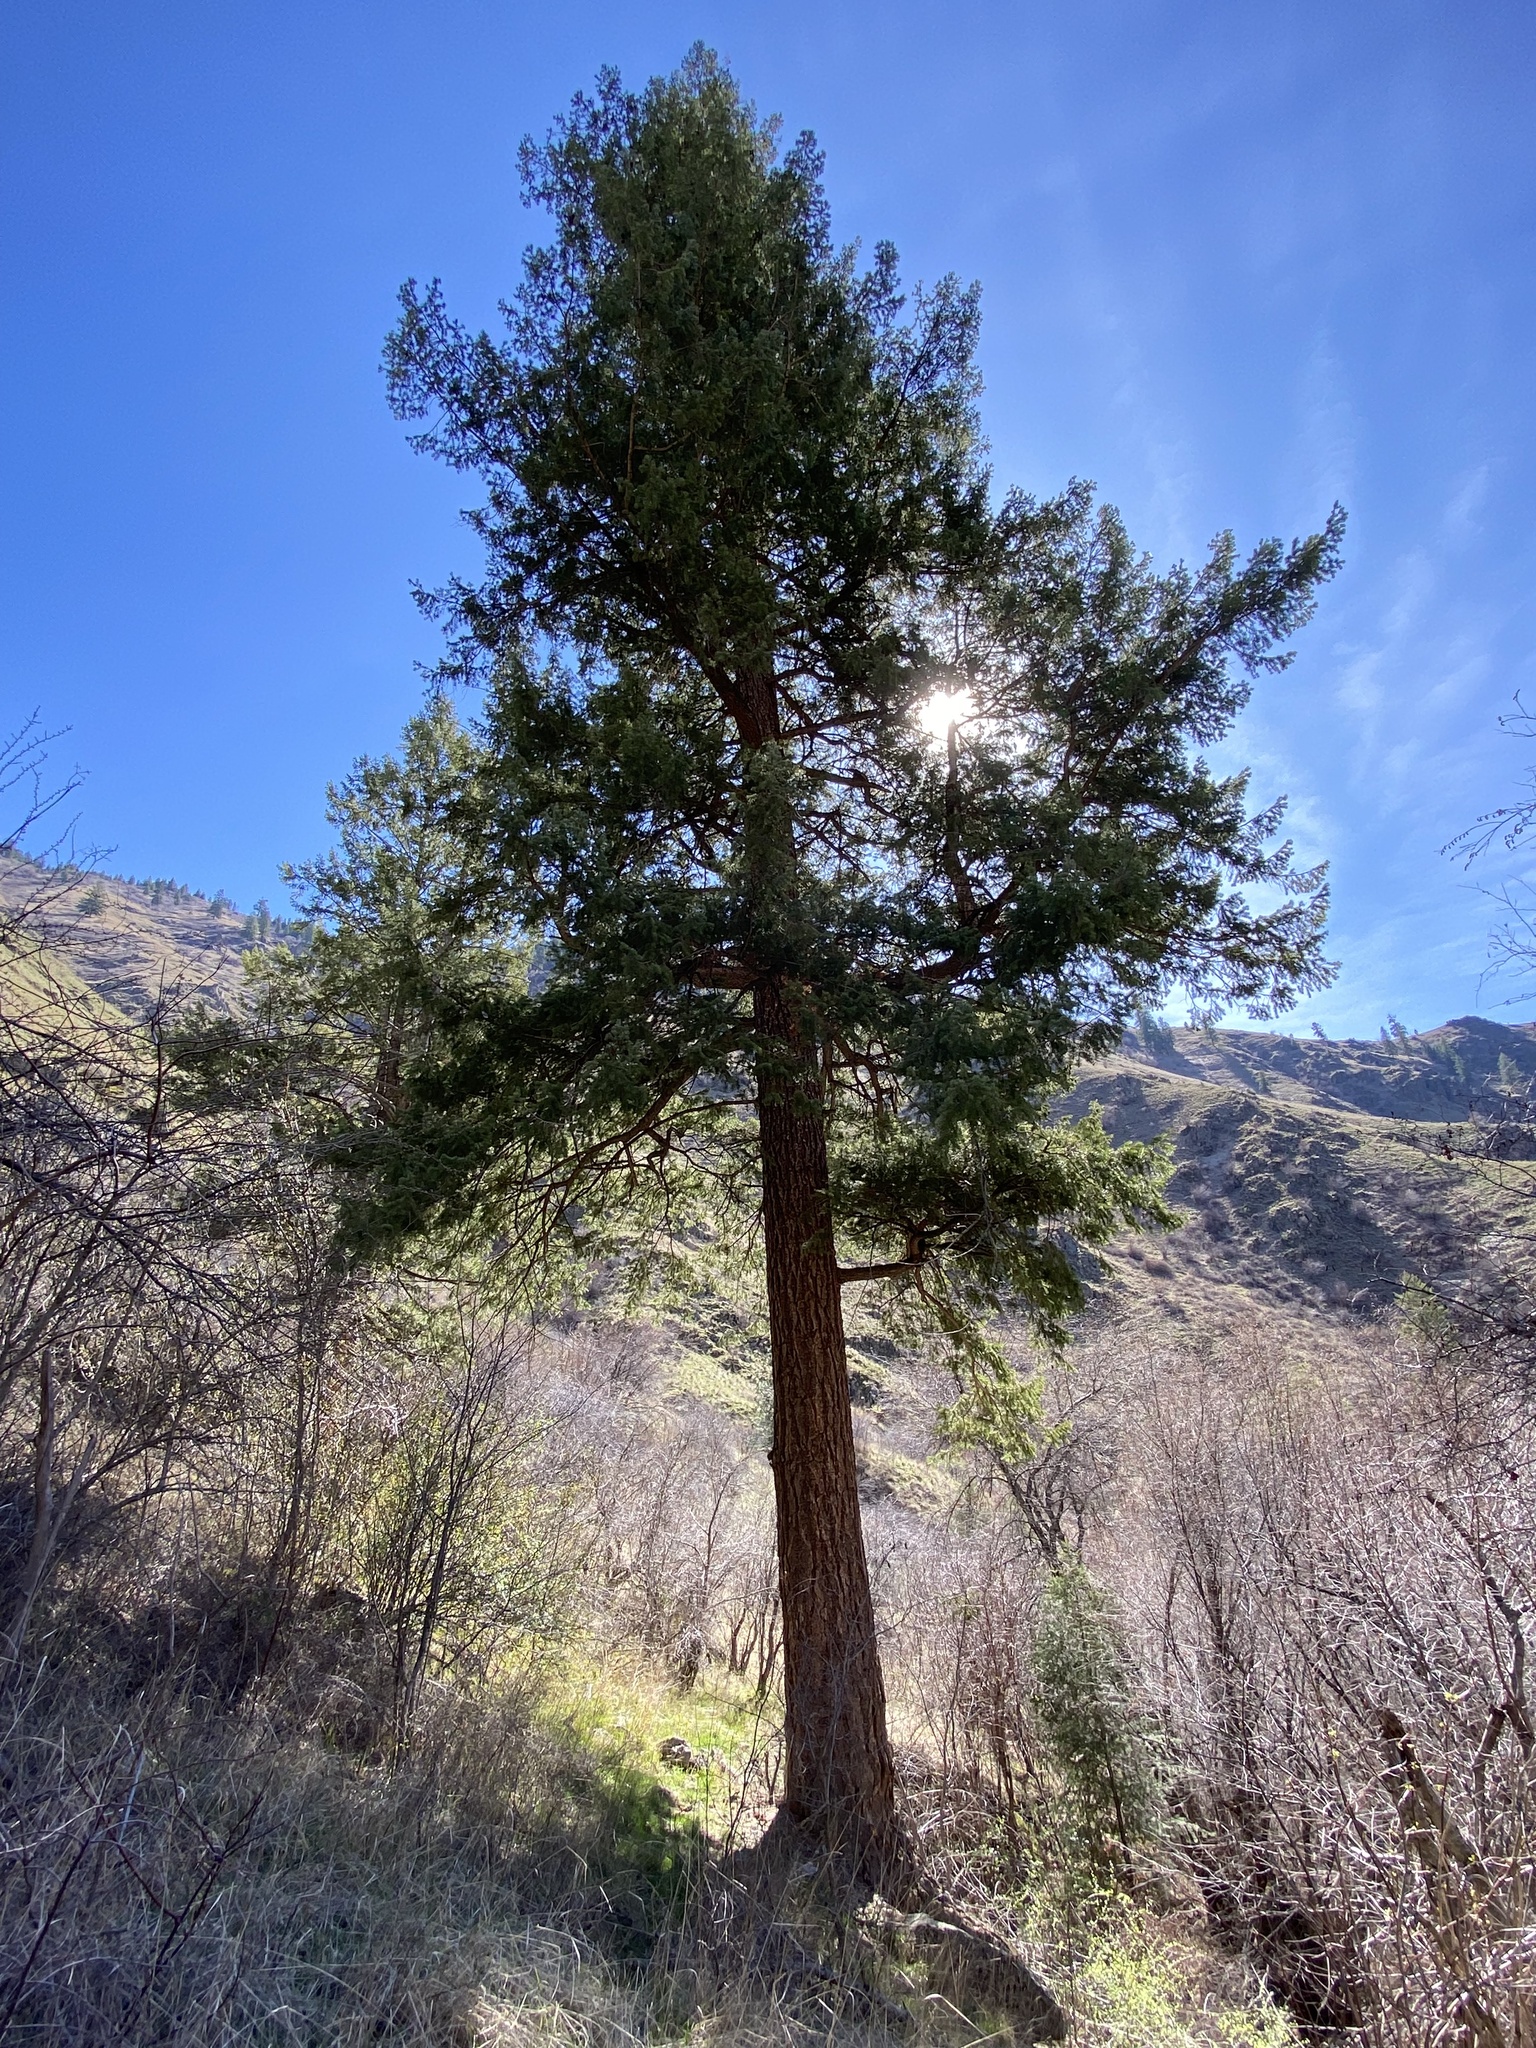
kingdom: Plantae
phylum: Tracheophyta
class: Pinopsida
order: Pinales
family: Pinaceae
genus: Pseudotsuga
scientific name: Pseudotsuga menziesii
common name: Douglas fir
